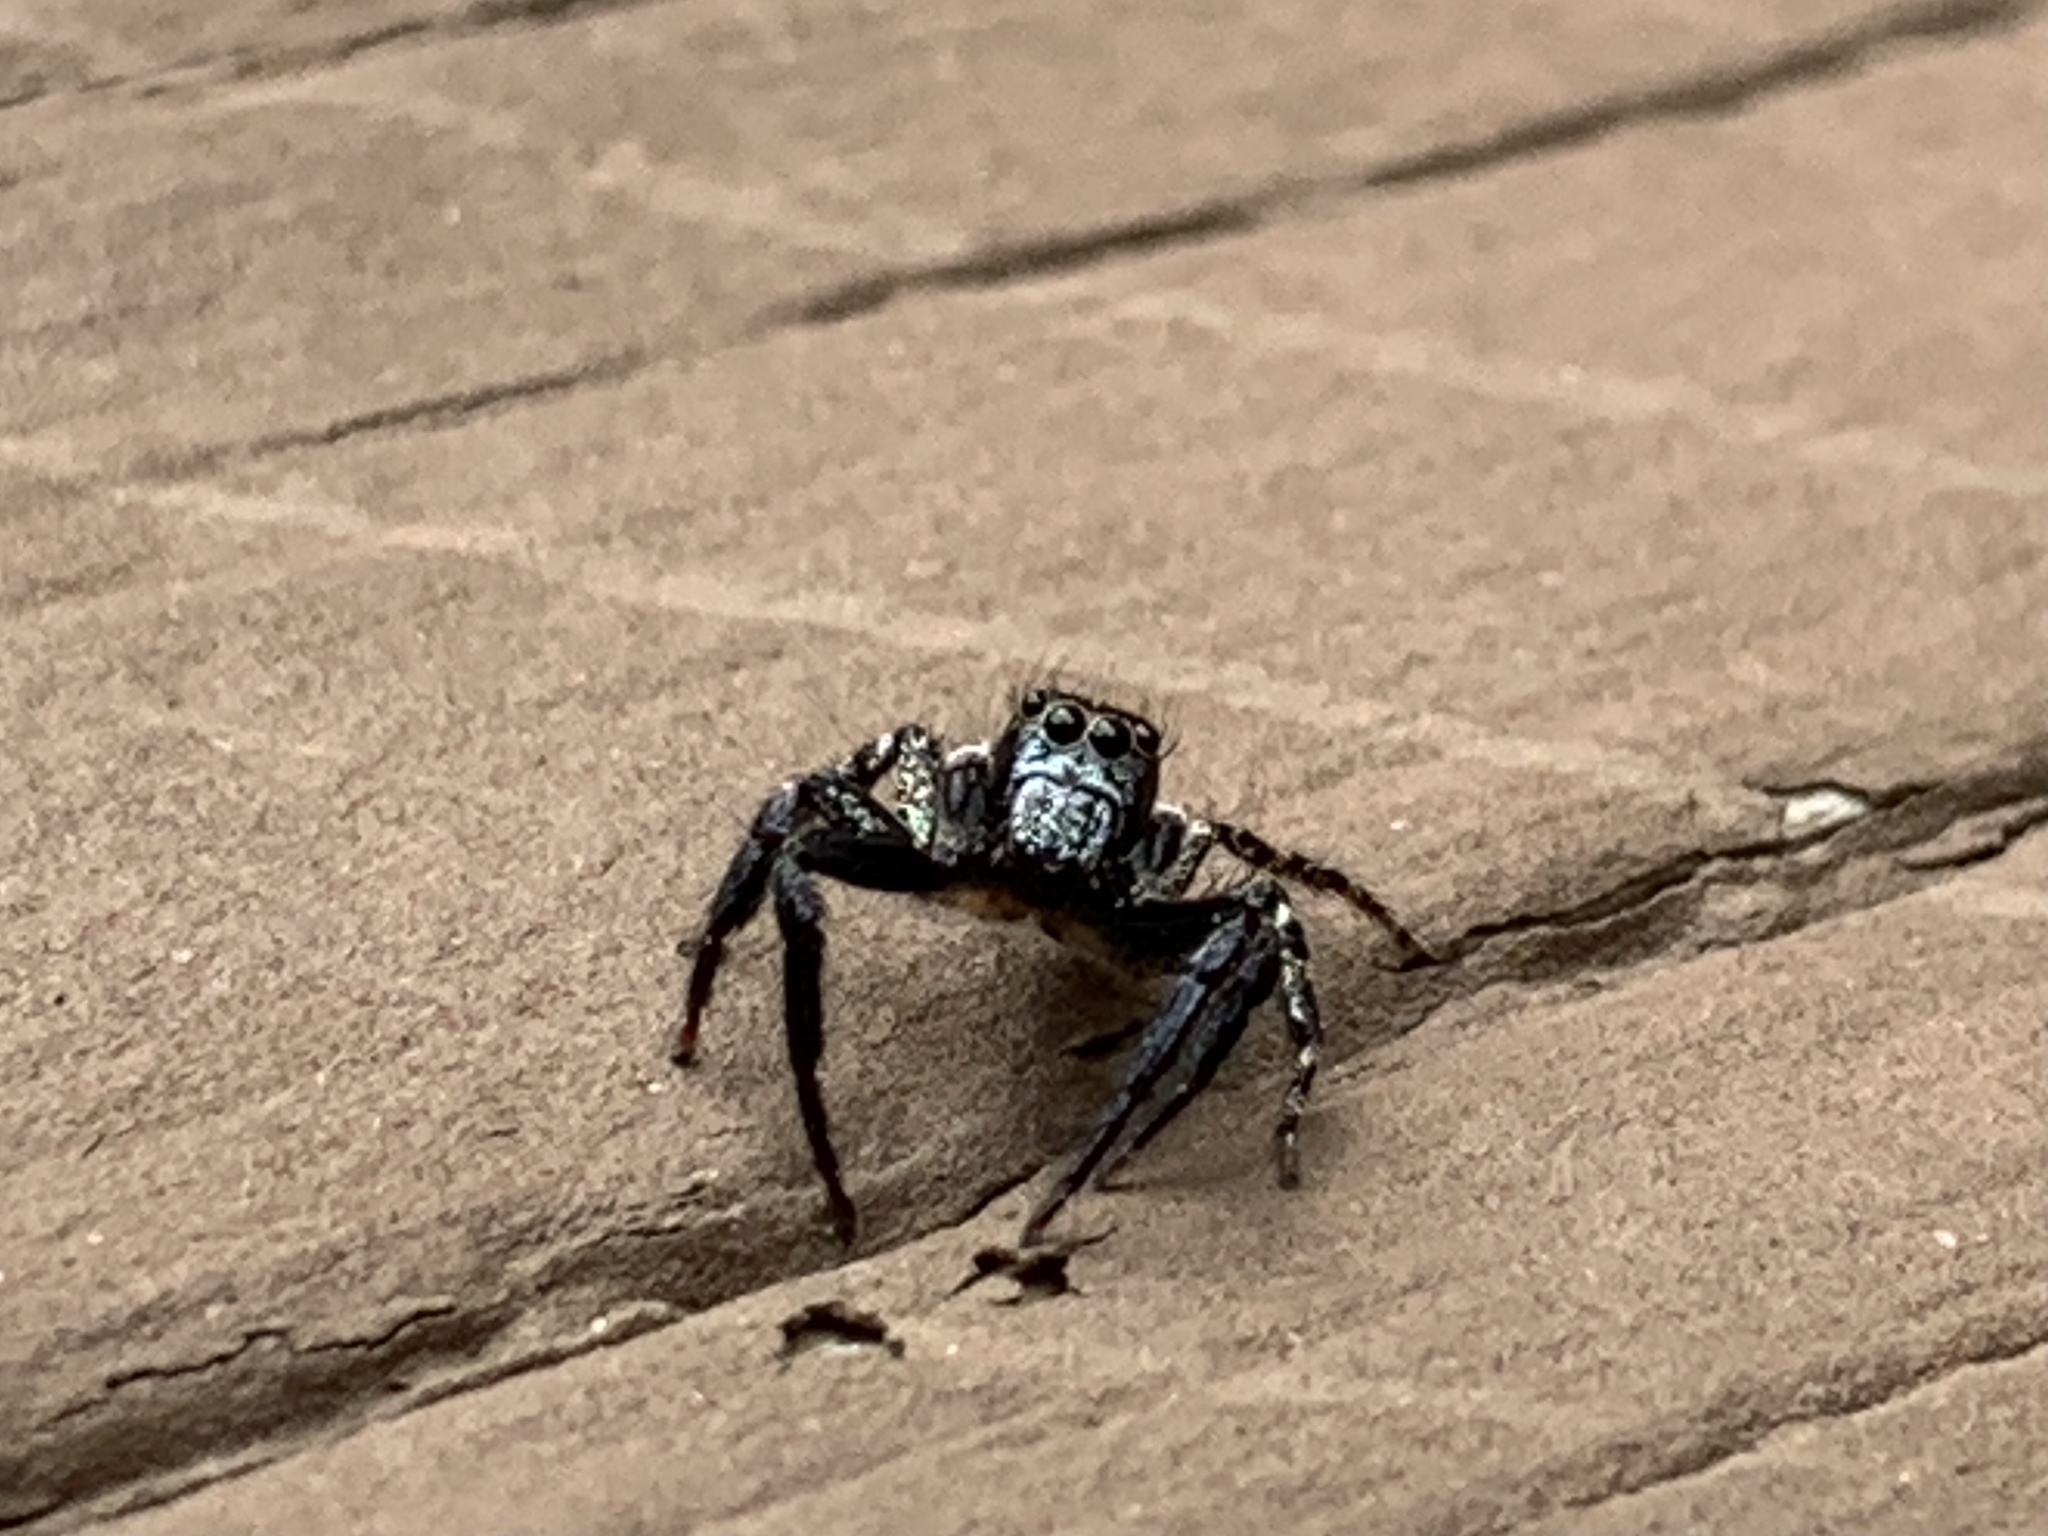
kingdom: Animalia
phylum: Arthropoda
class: Arachnida
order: Araneae
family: Salticidae
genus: Anasaitis
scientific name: Anasaitis canosa
